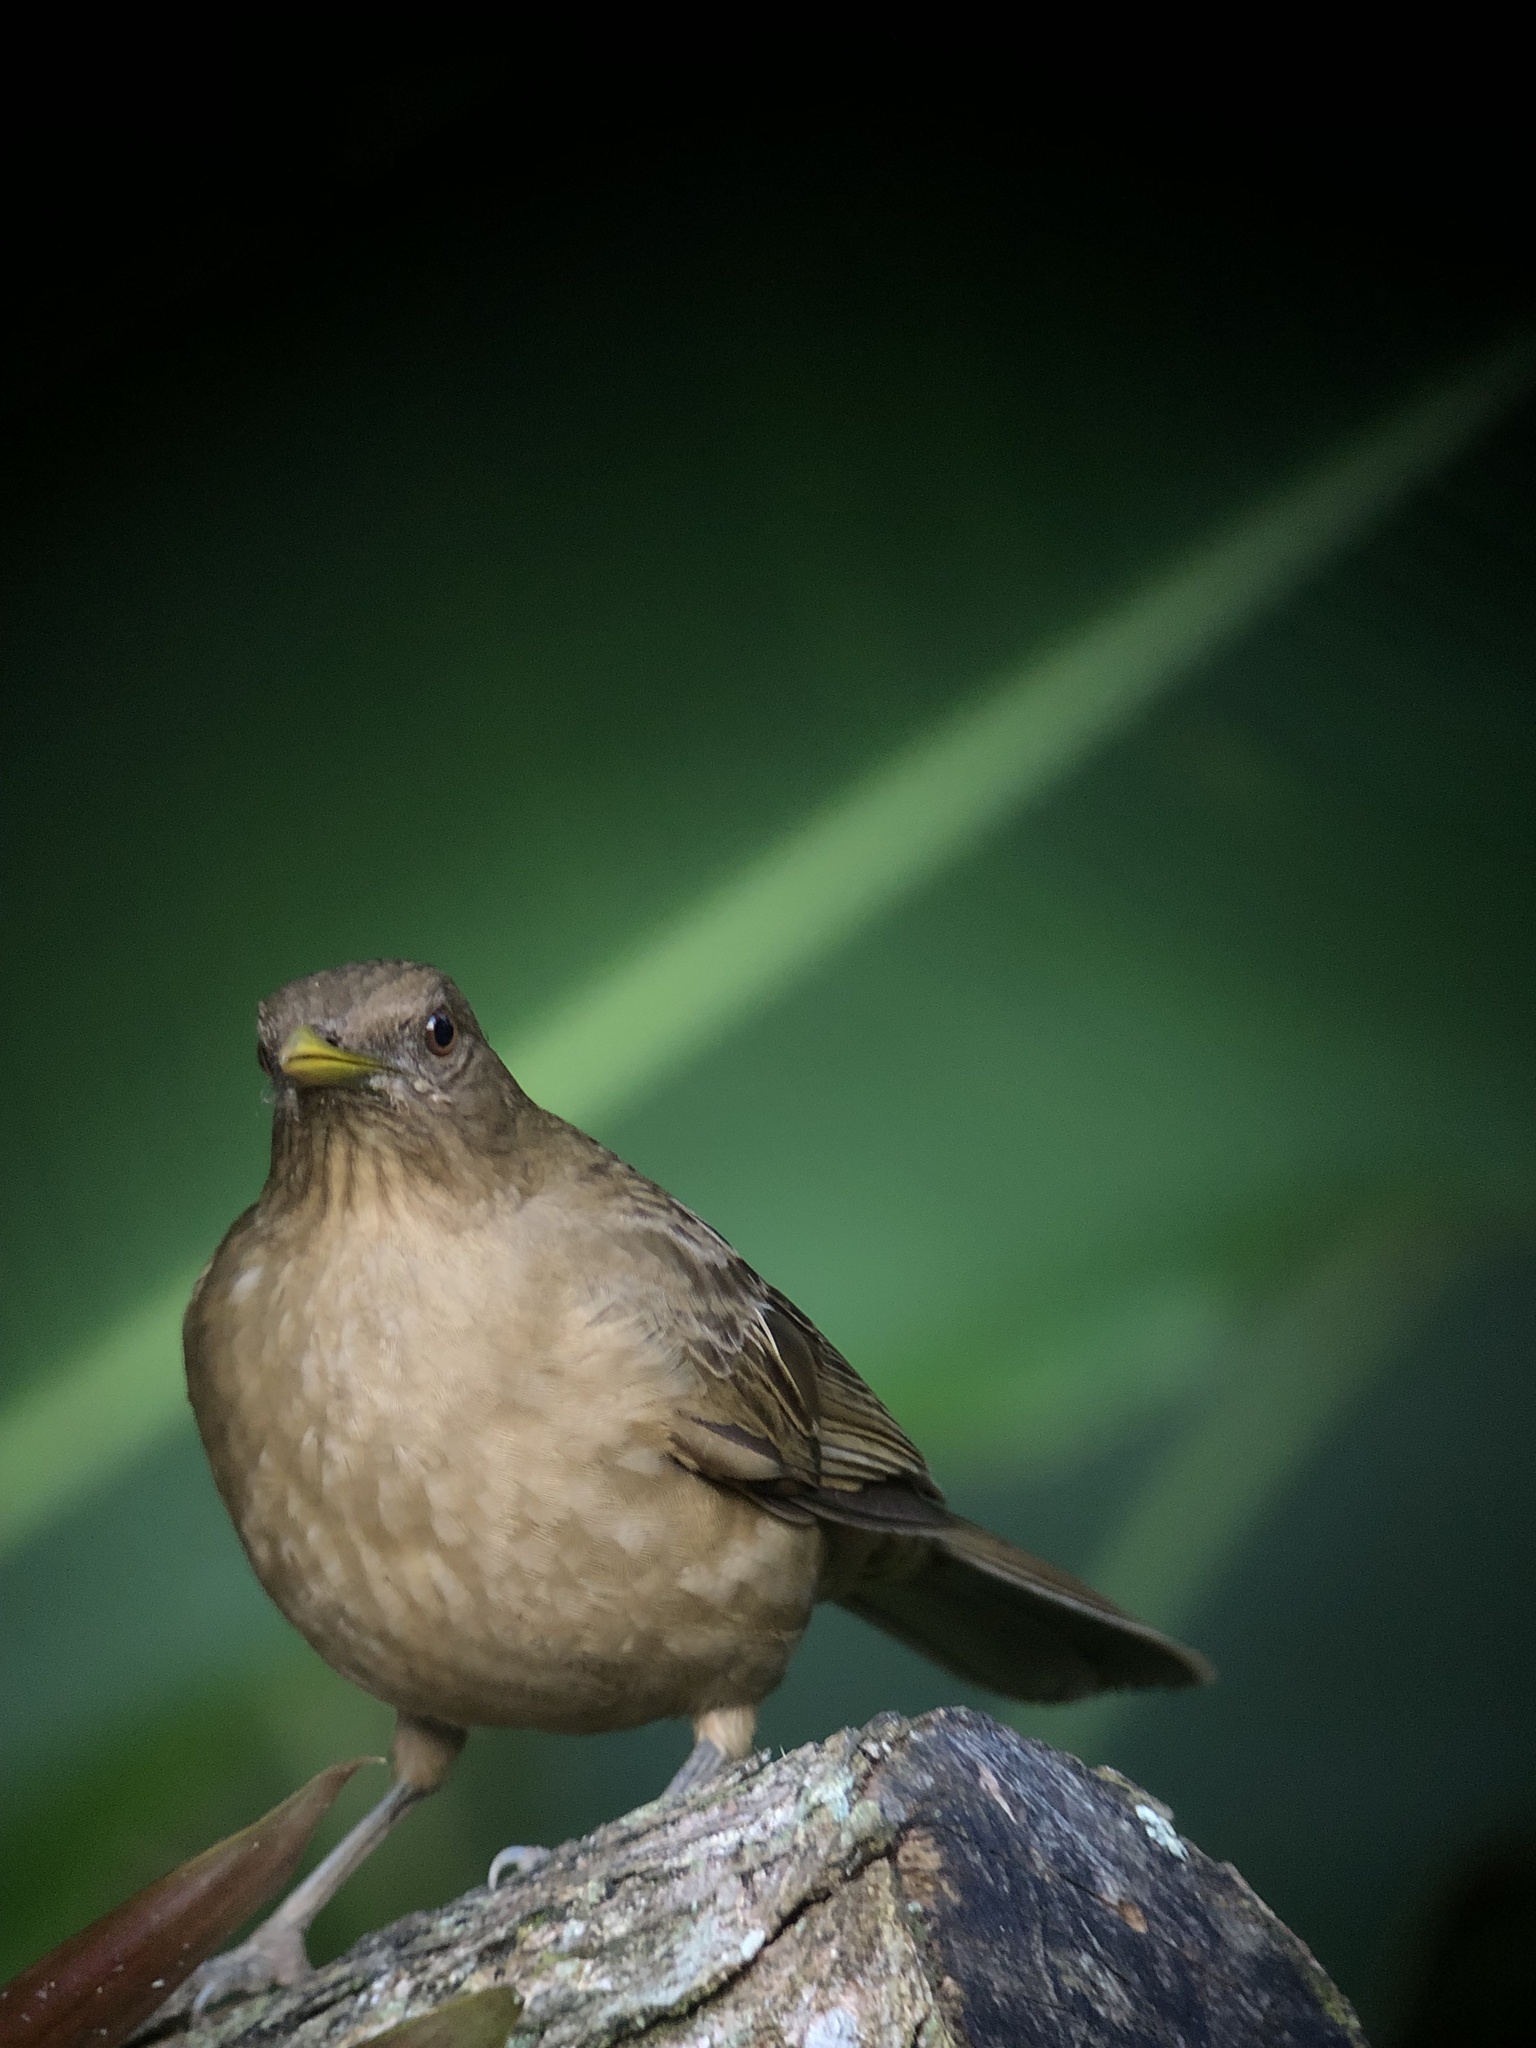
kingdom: Animalia
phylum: Chordata
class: Aves
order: Passeriformes
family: Turdidae
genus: Turdus
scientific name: Turdus grayi
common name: Clay-colored thrush
